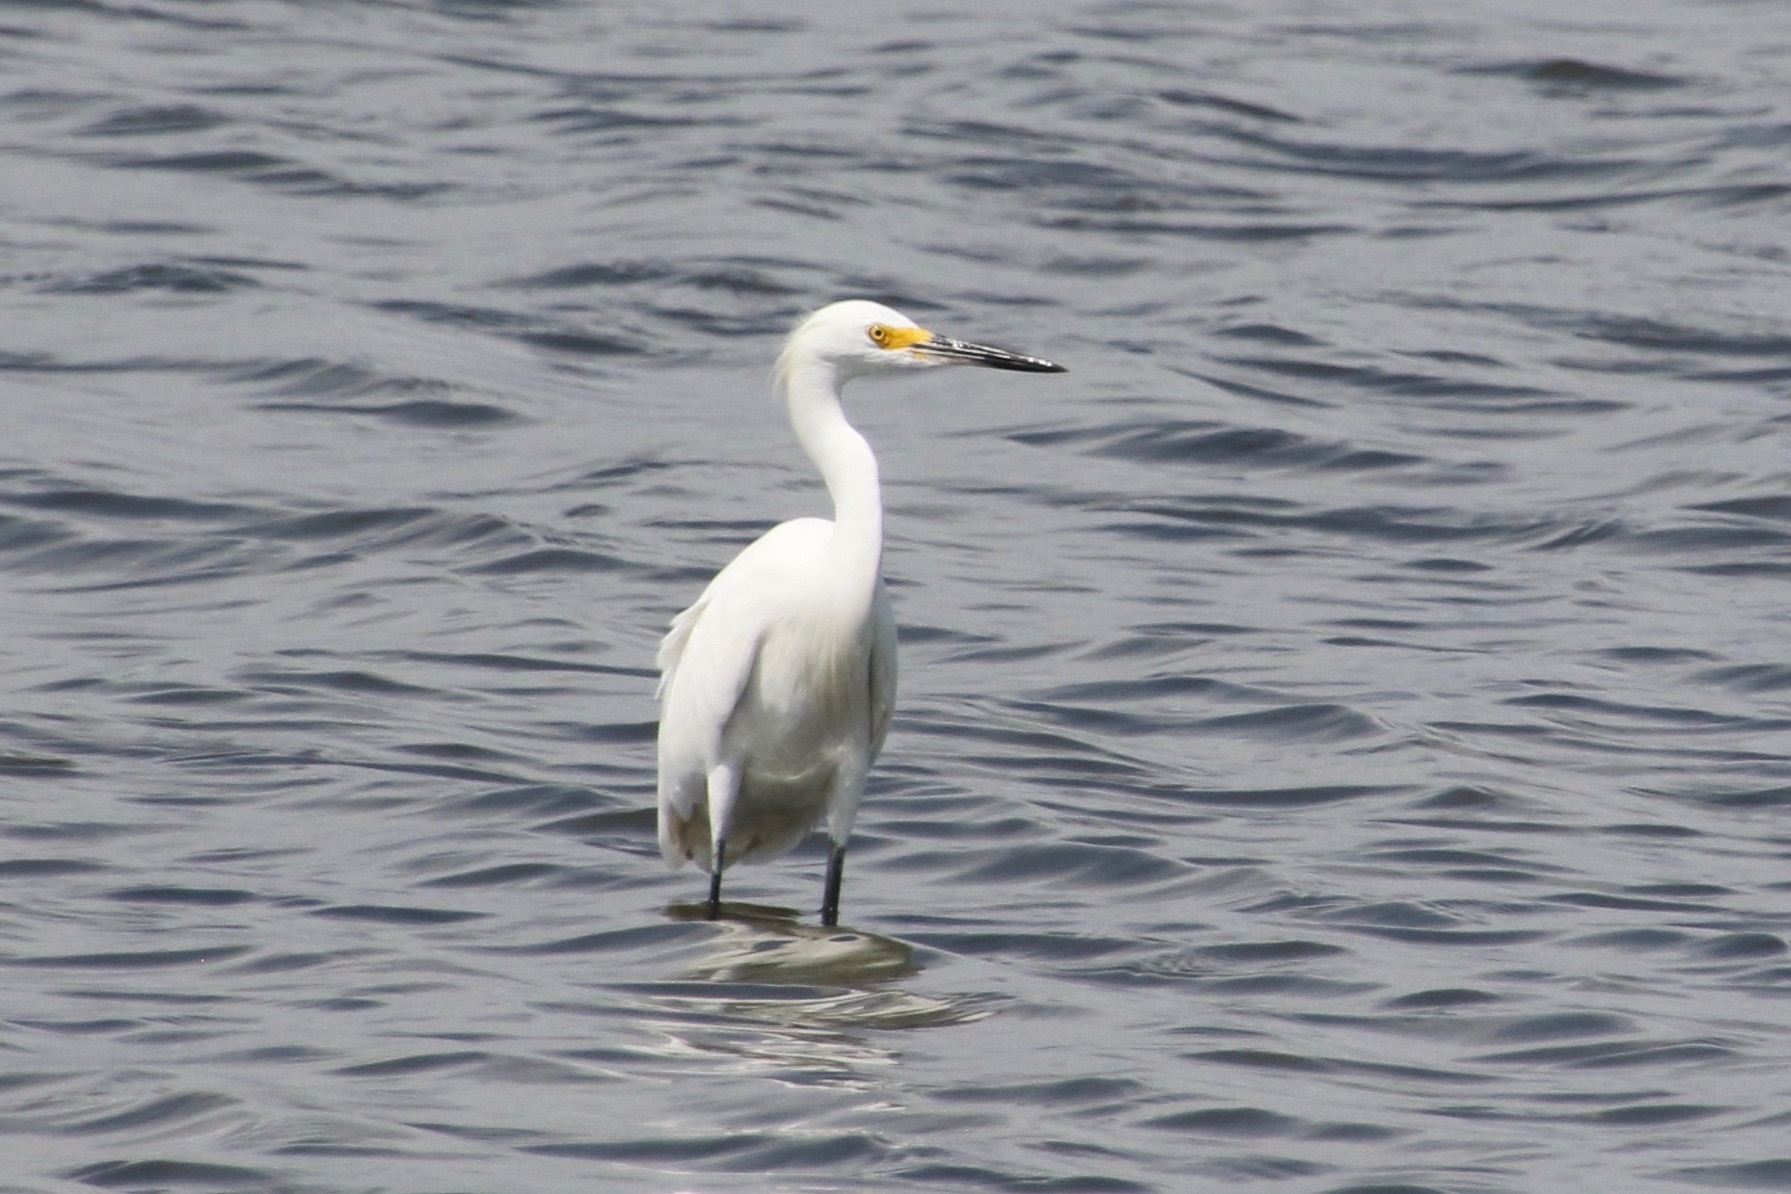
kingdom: Animalia
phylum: Chordata
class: Aves
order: Pelecaniformes
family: Ardeidae
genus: Egretta
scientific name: Egretta thula
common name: Snowy egret
